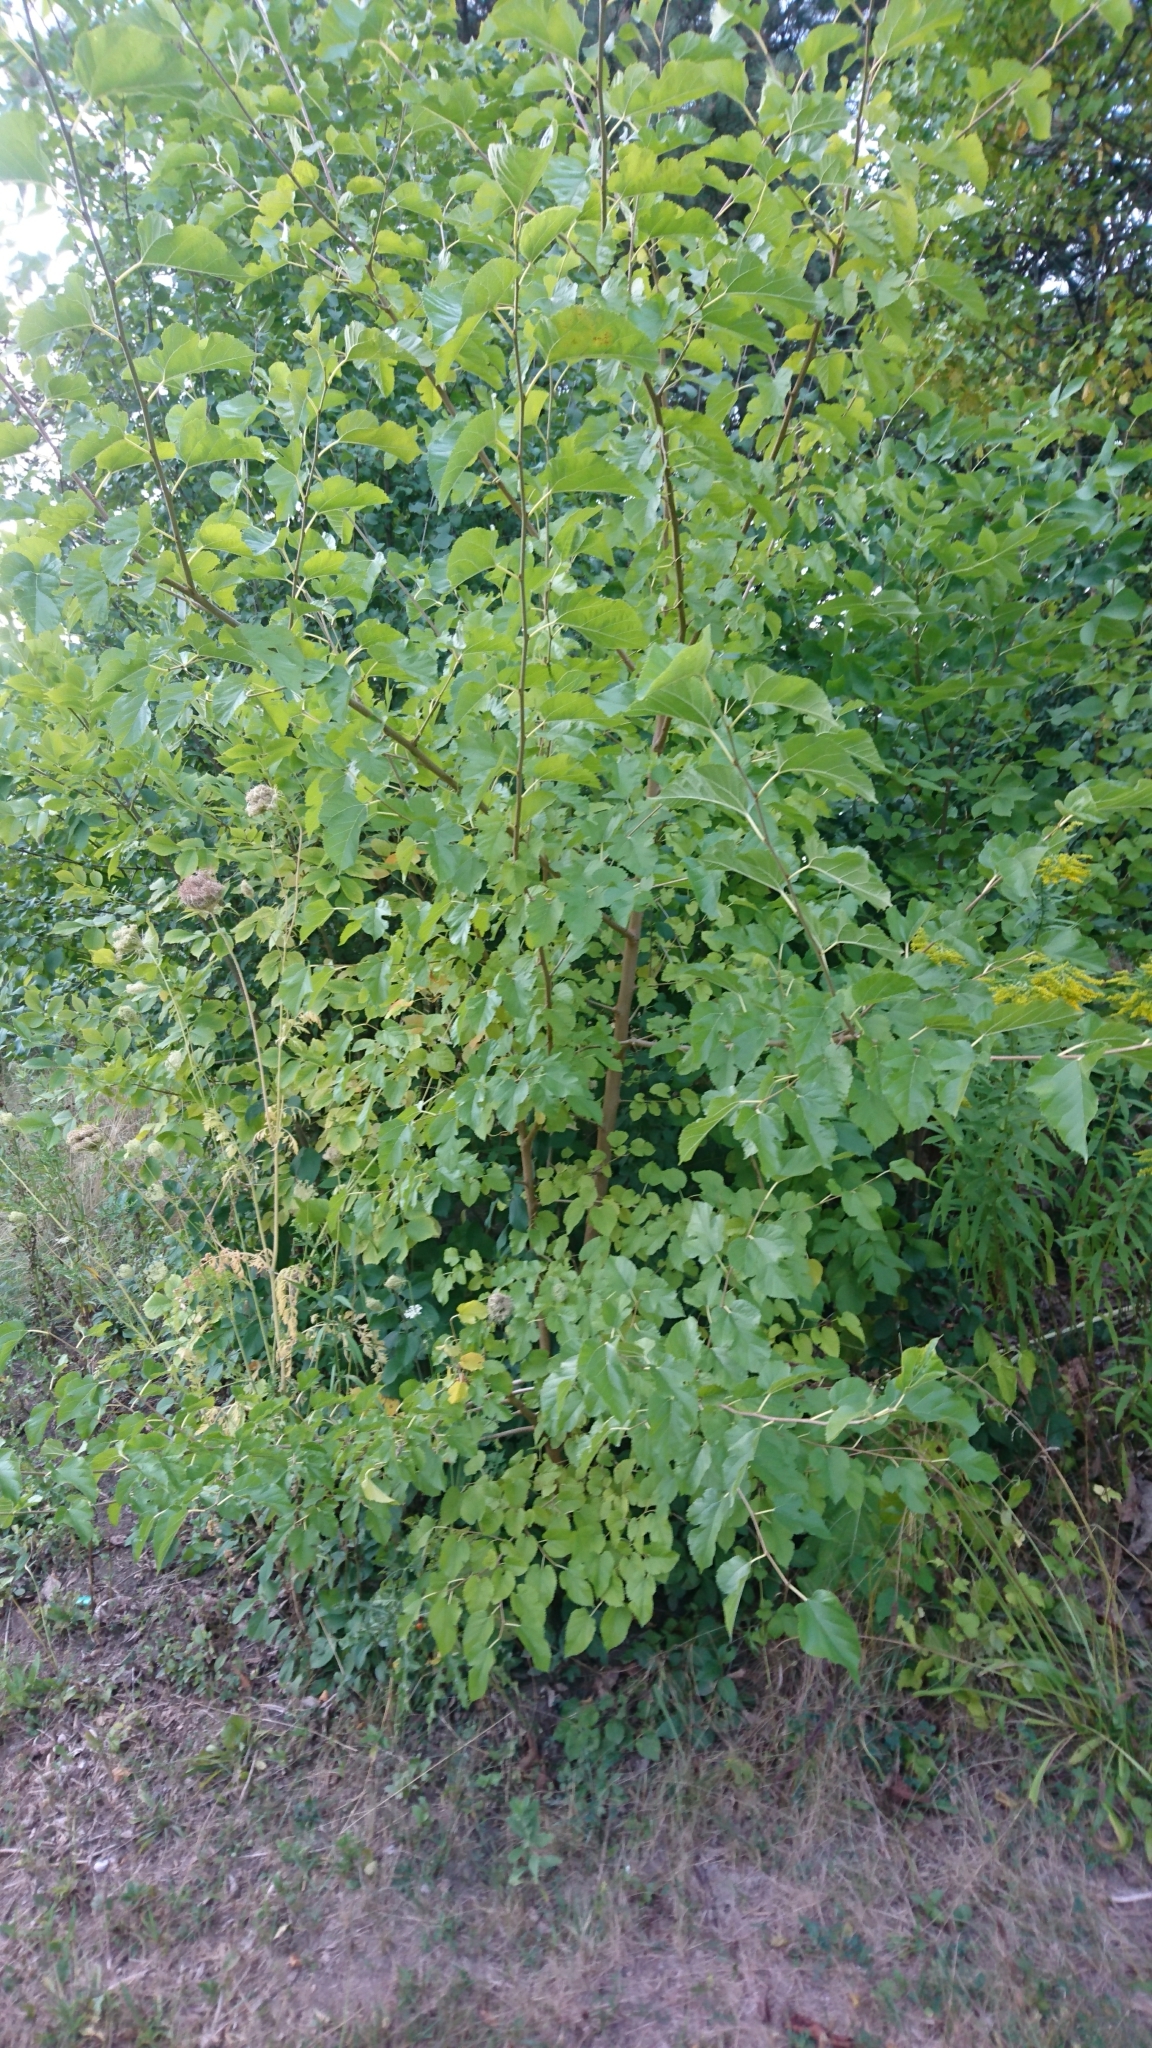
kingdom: Plantae
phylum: Tracheophyta
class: Magnoliopsida
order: Rosales
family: Moraceae
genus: Morus
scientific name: Morus alba
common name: White mulberry
